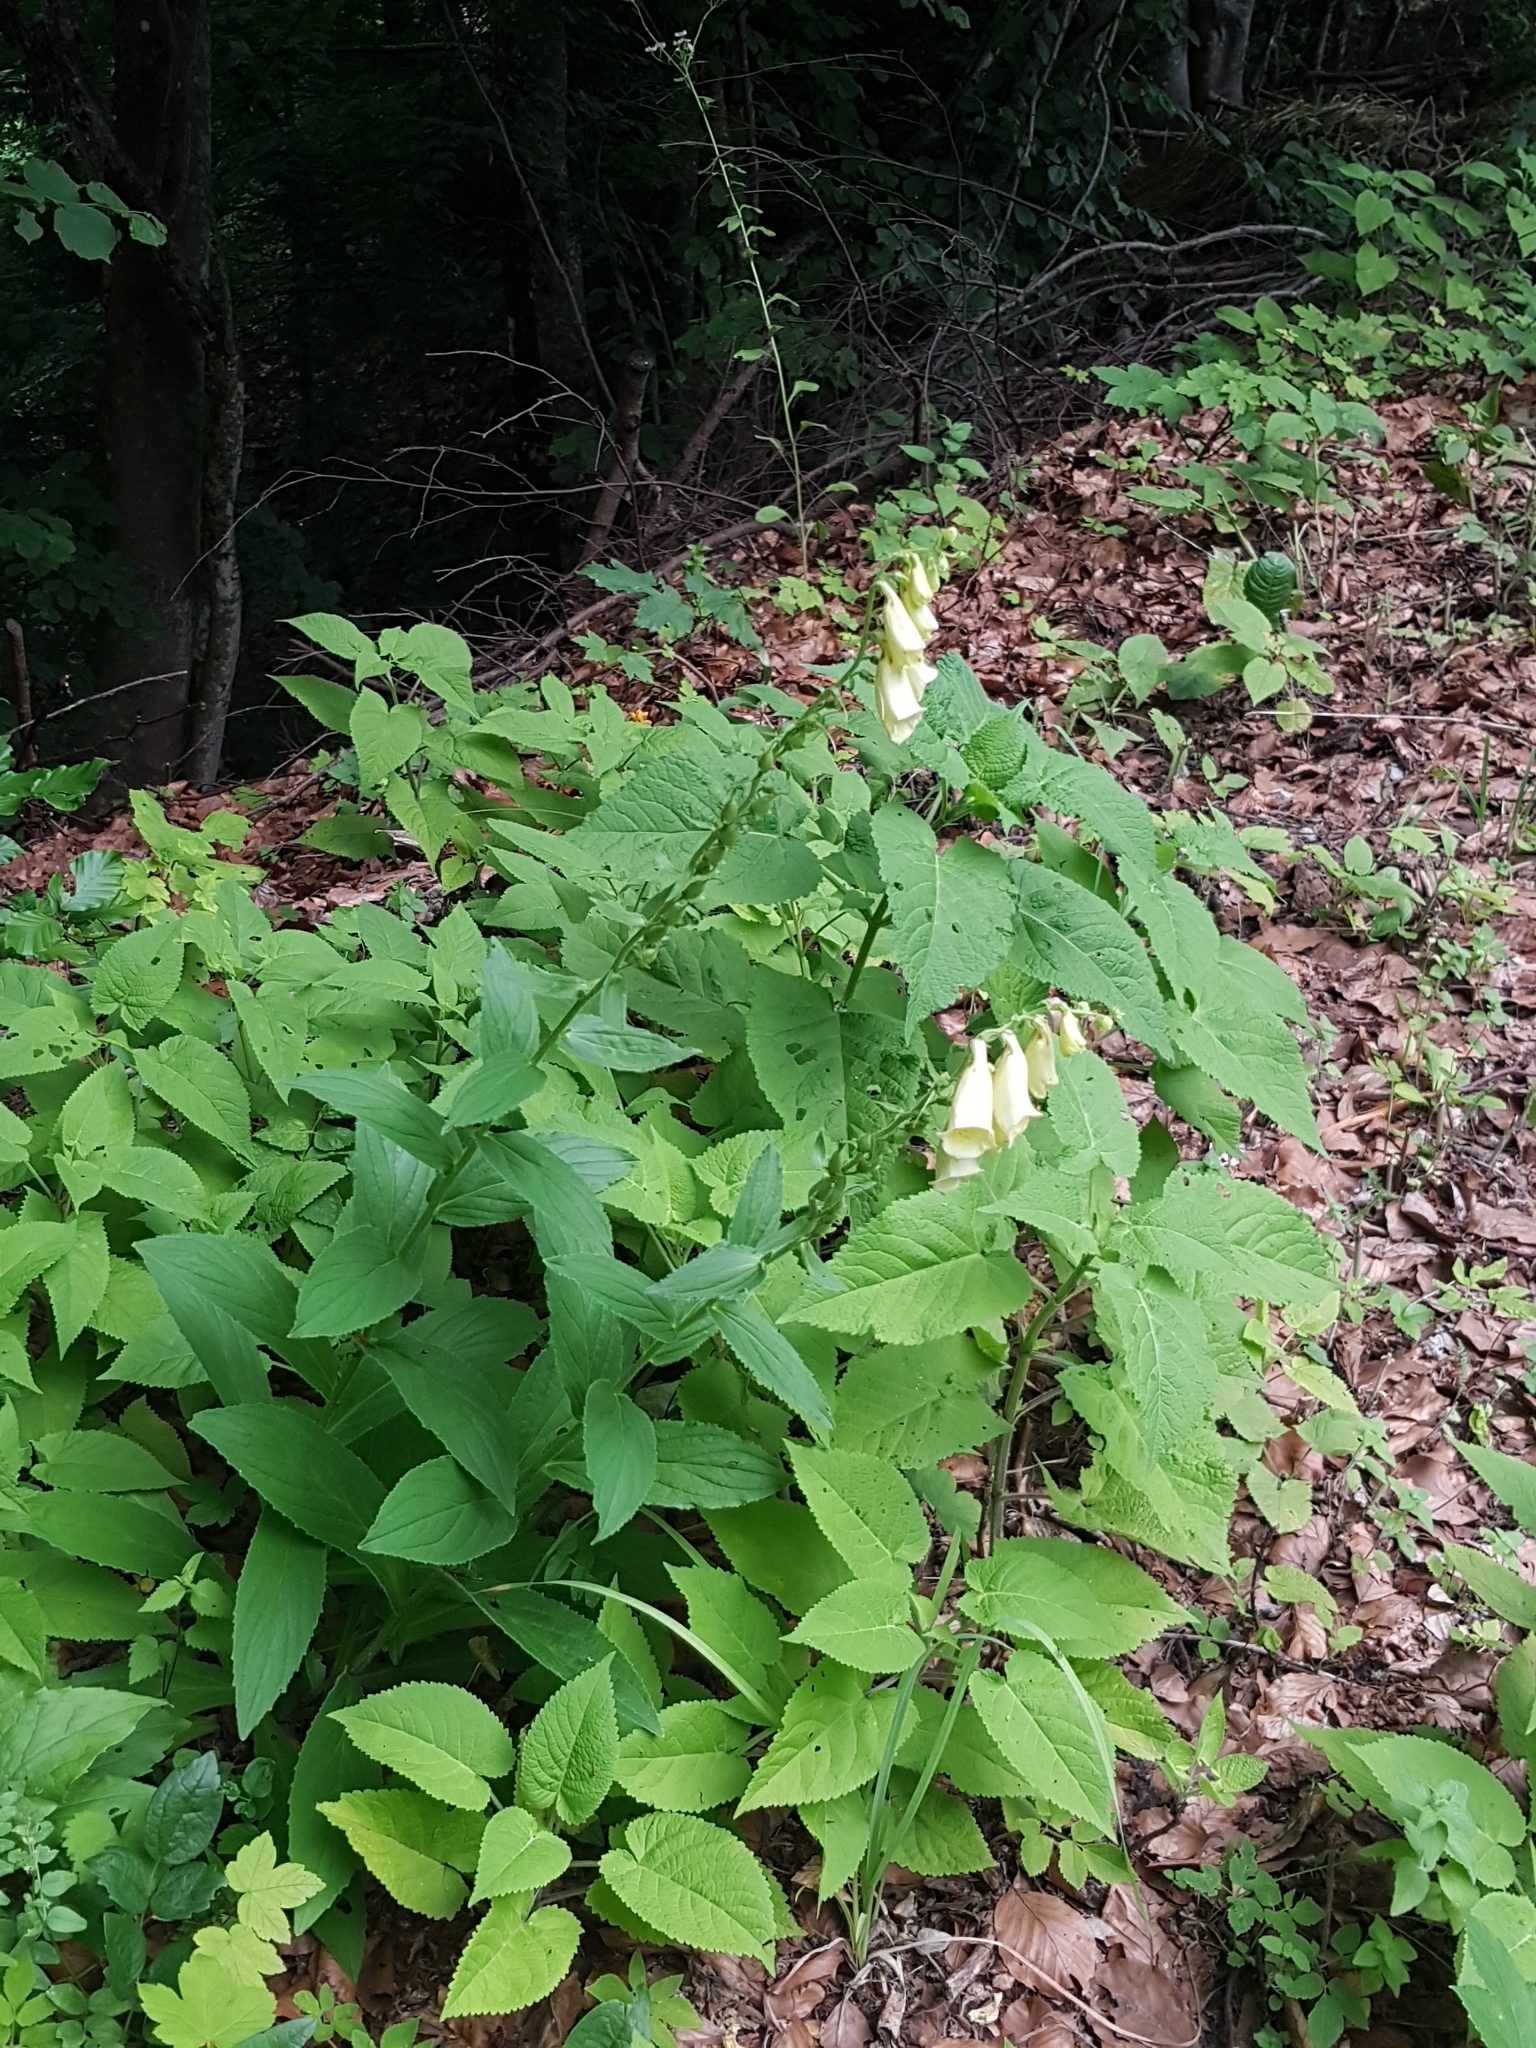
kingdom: Plantae
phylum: Tracheophyta
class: Magnoliopsida
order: Lamiales
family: Plantaginaceae
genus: Digitalis
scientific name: Digitalis grandiflora
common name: Yellow foxglove
